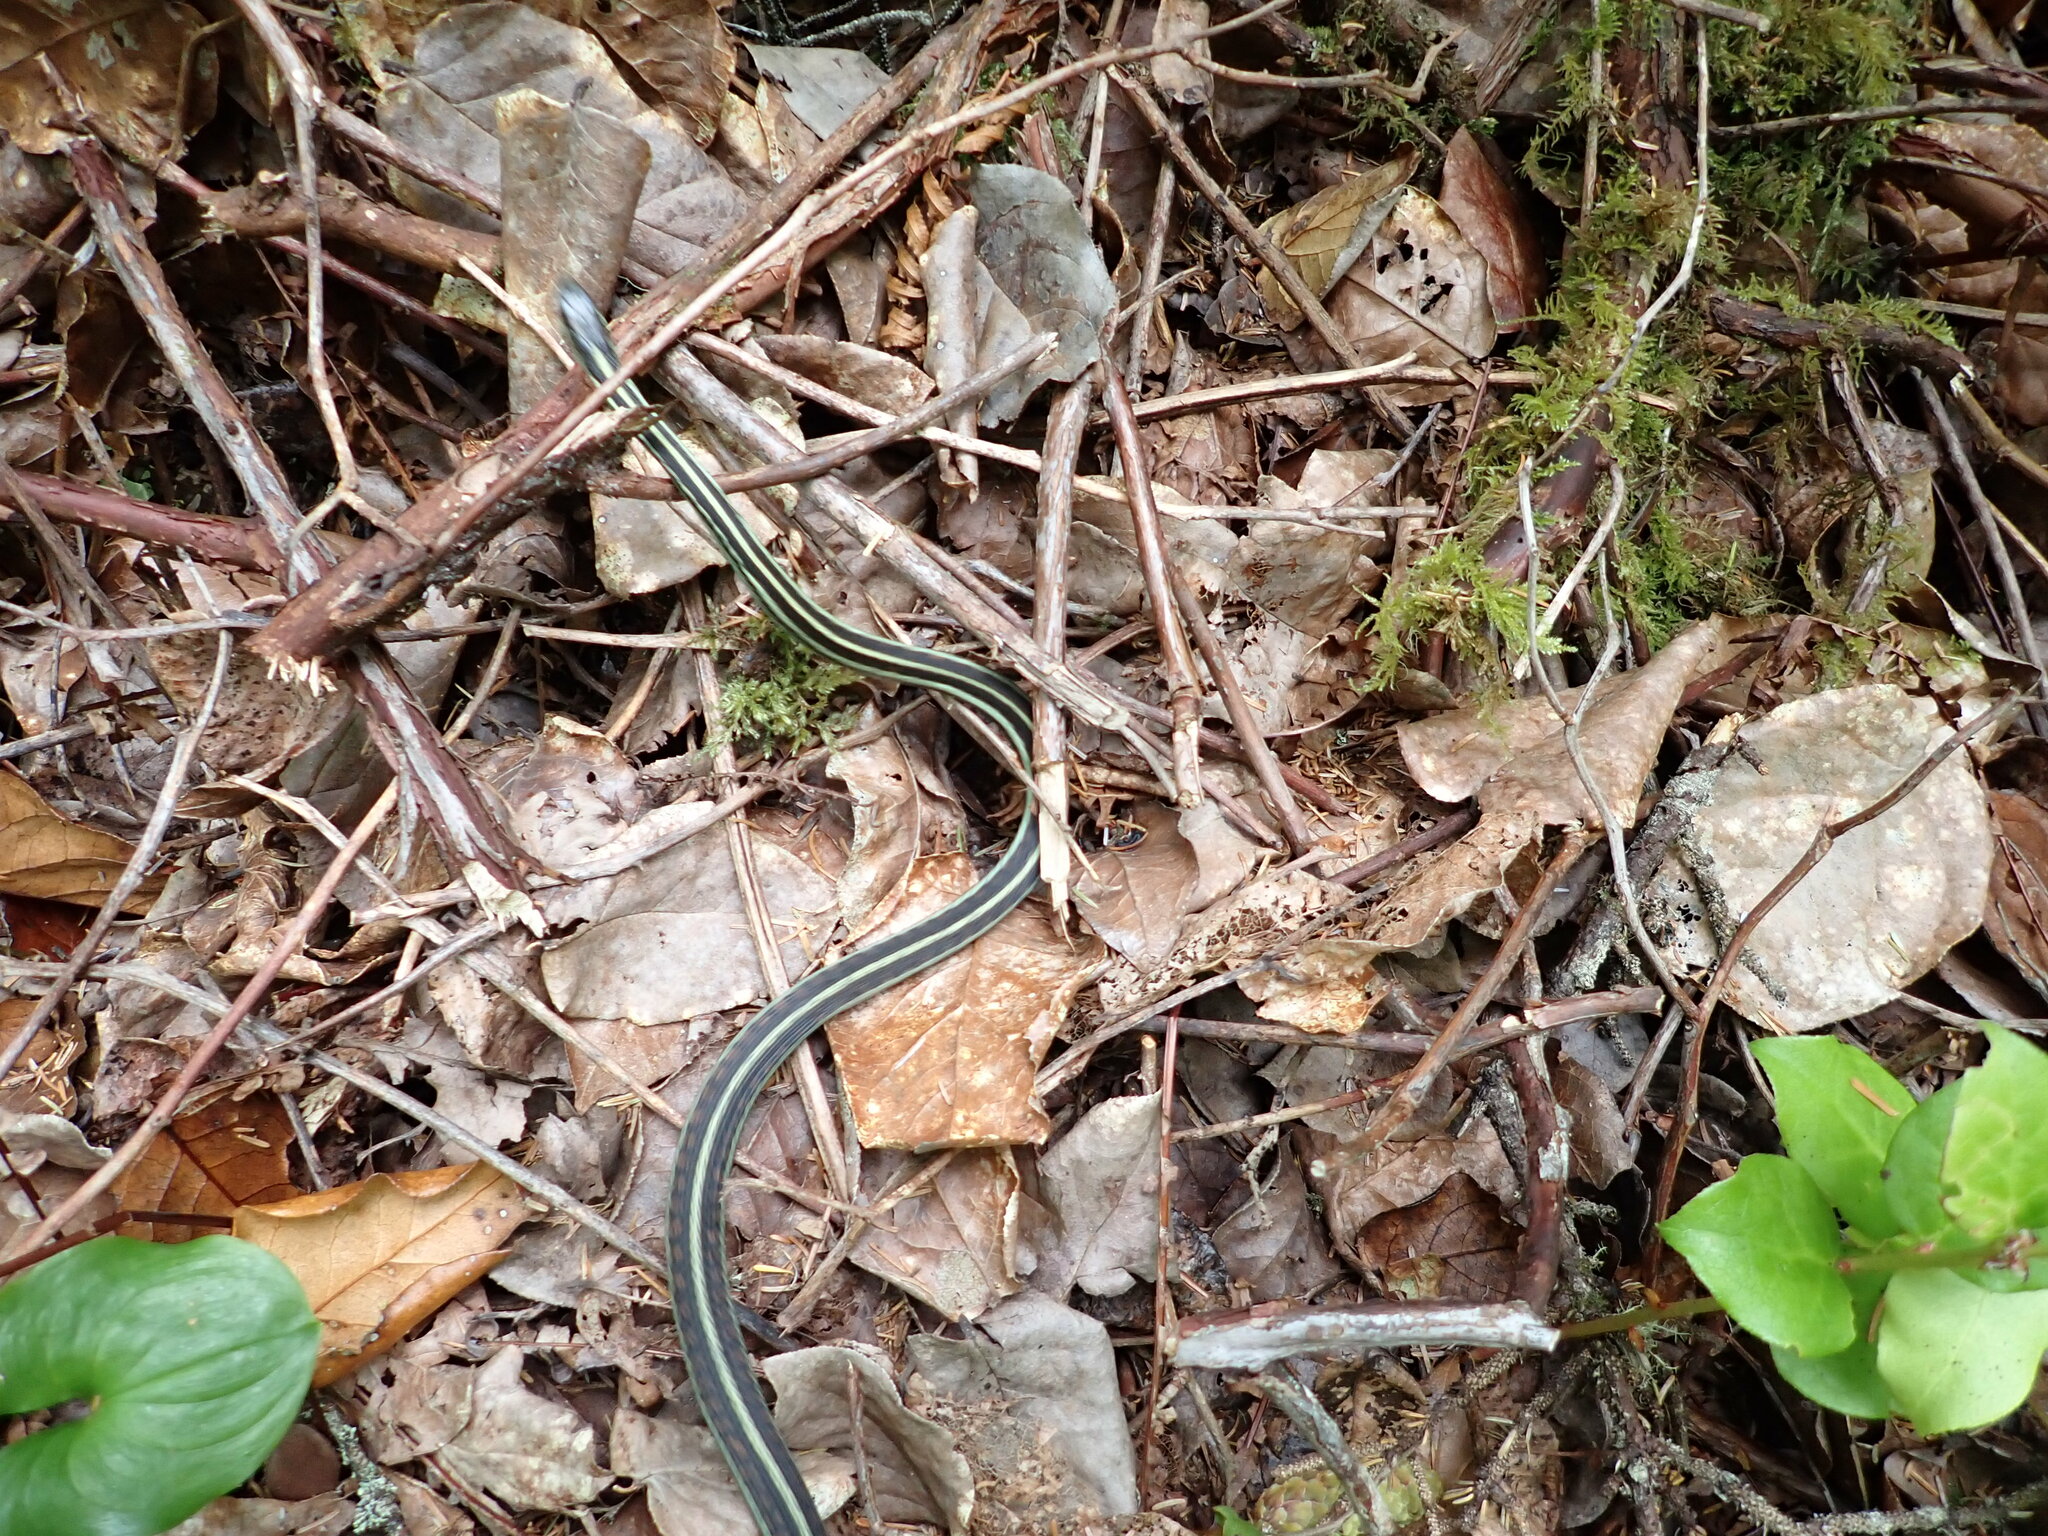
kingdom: Animalia
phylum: Chordata
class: Squamata
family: Colubridae
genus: Thamnophis
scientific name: Thamnophis sirtalis
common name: Common garter snake
